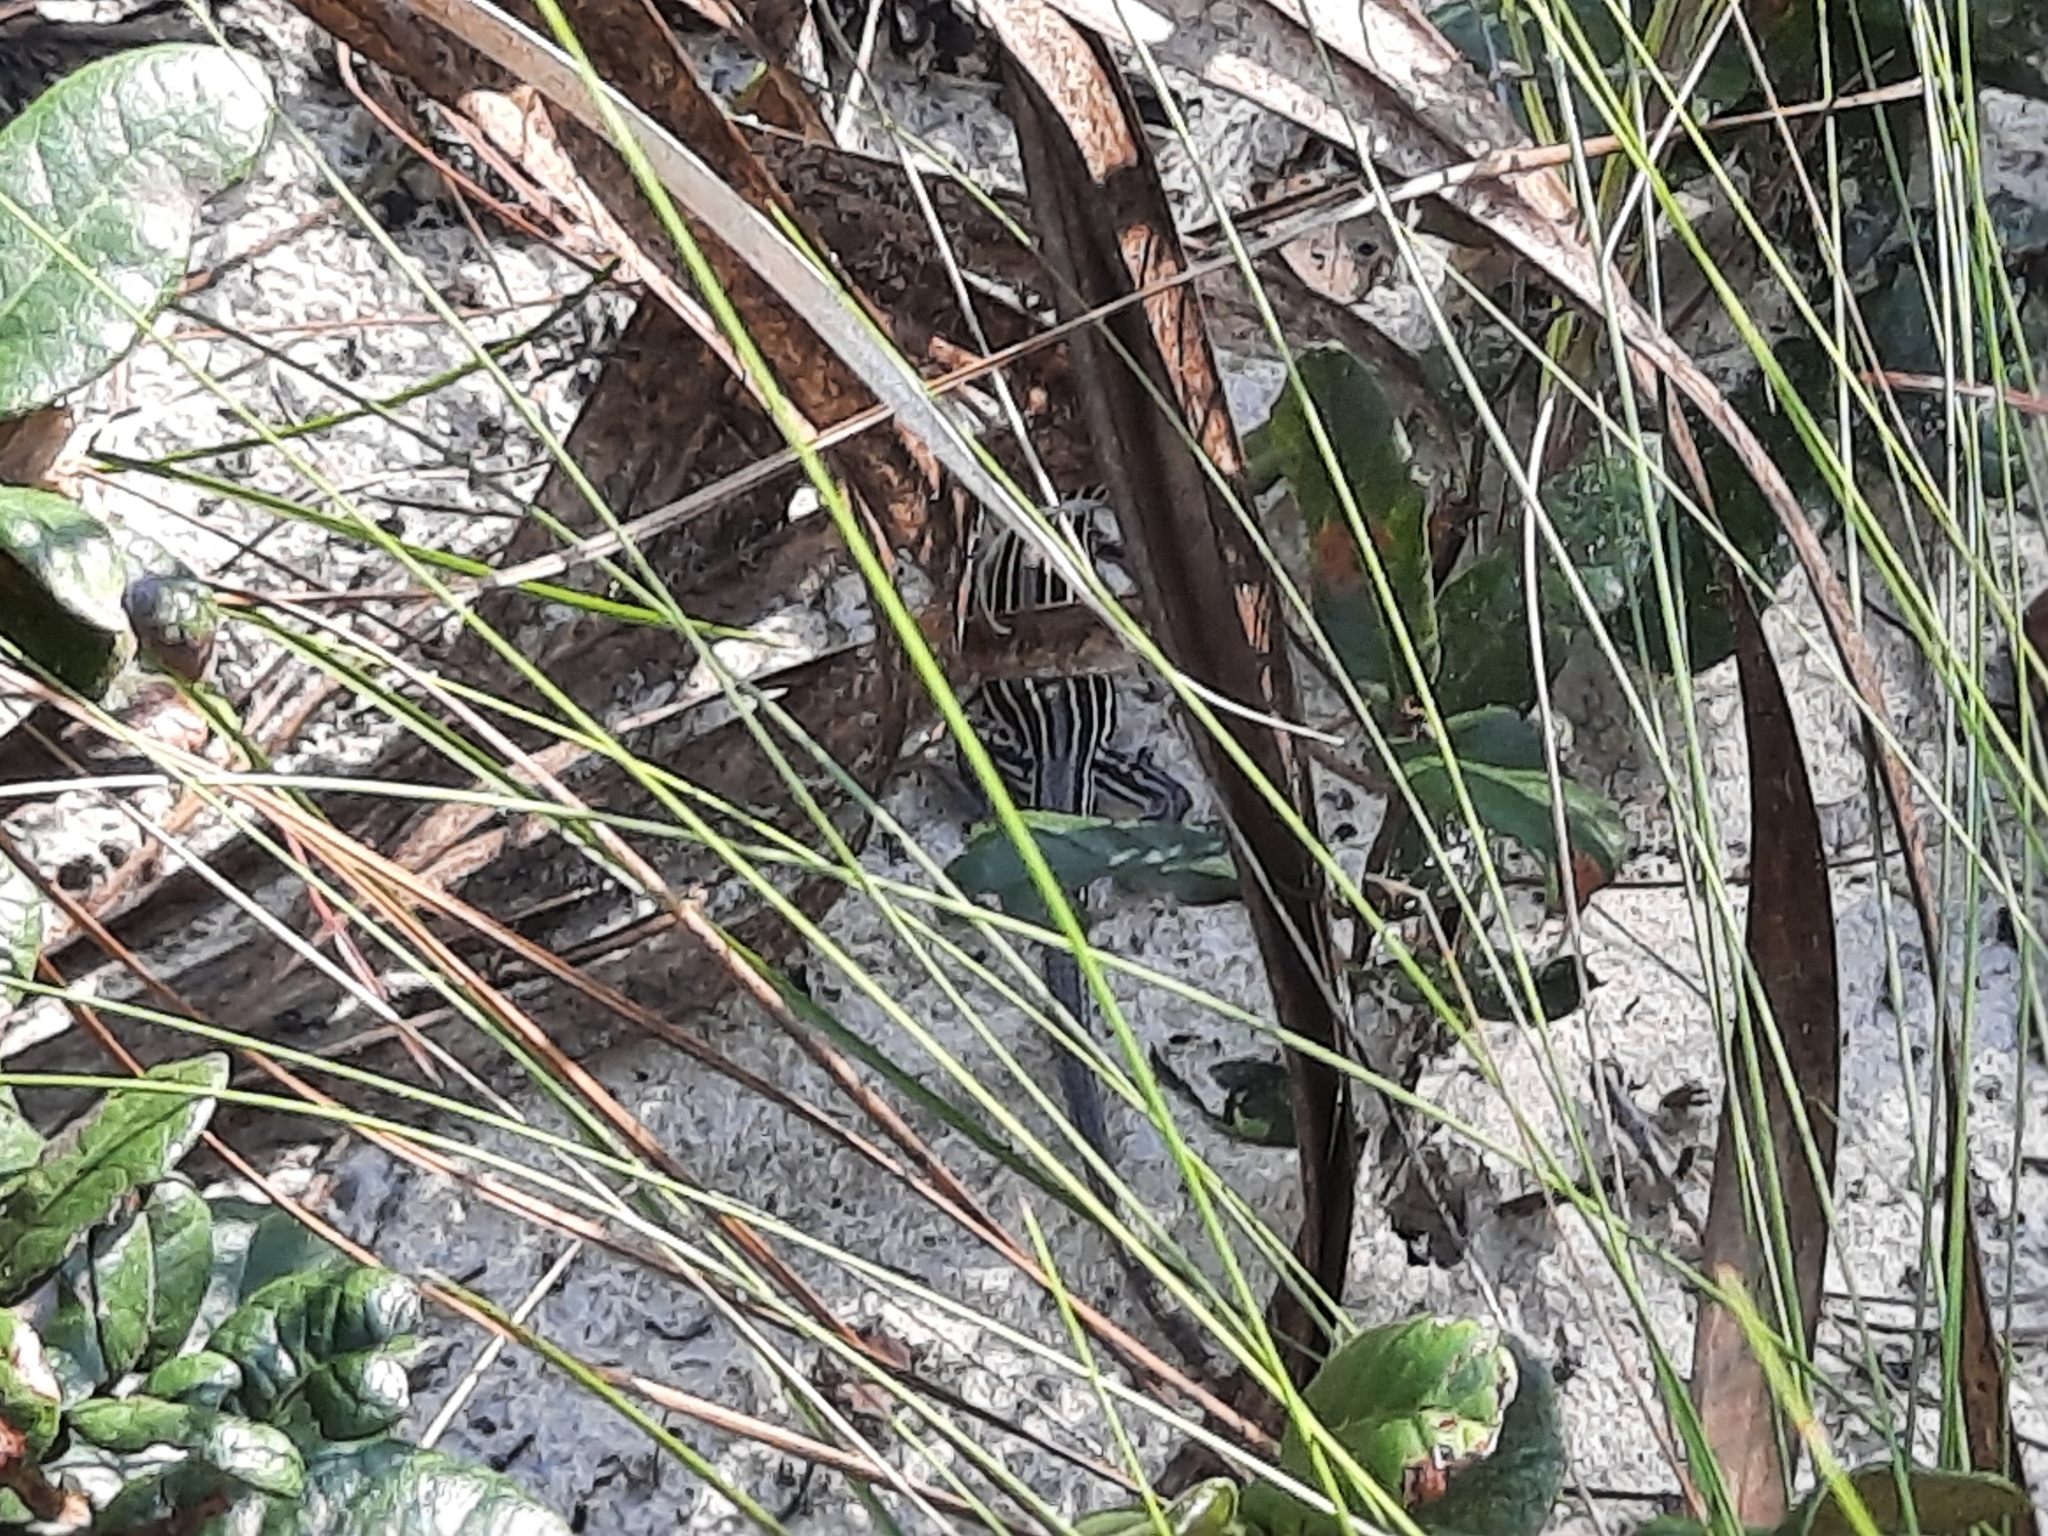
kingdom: Animalia
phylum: Chordata
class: Squamata
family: Teiidae
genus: Aspidoscelis
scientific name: Aspidoscelis sexlineatus
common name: Six-lined racerunner
